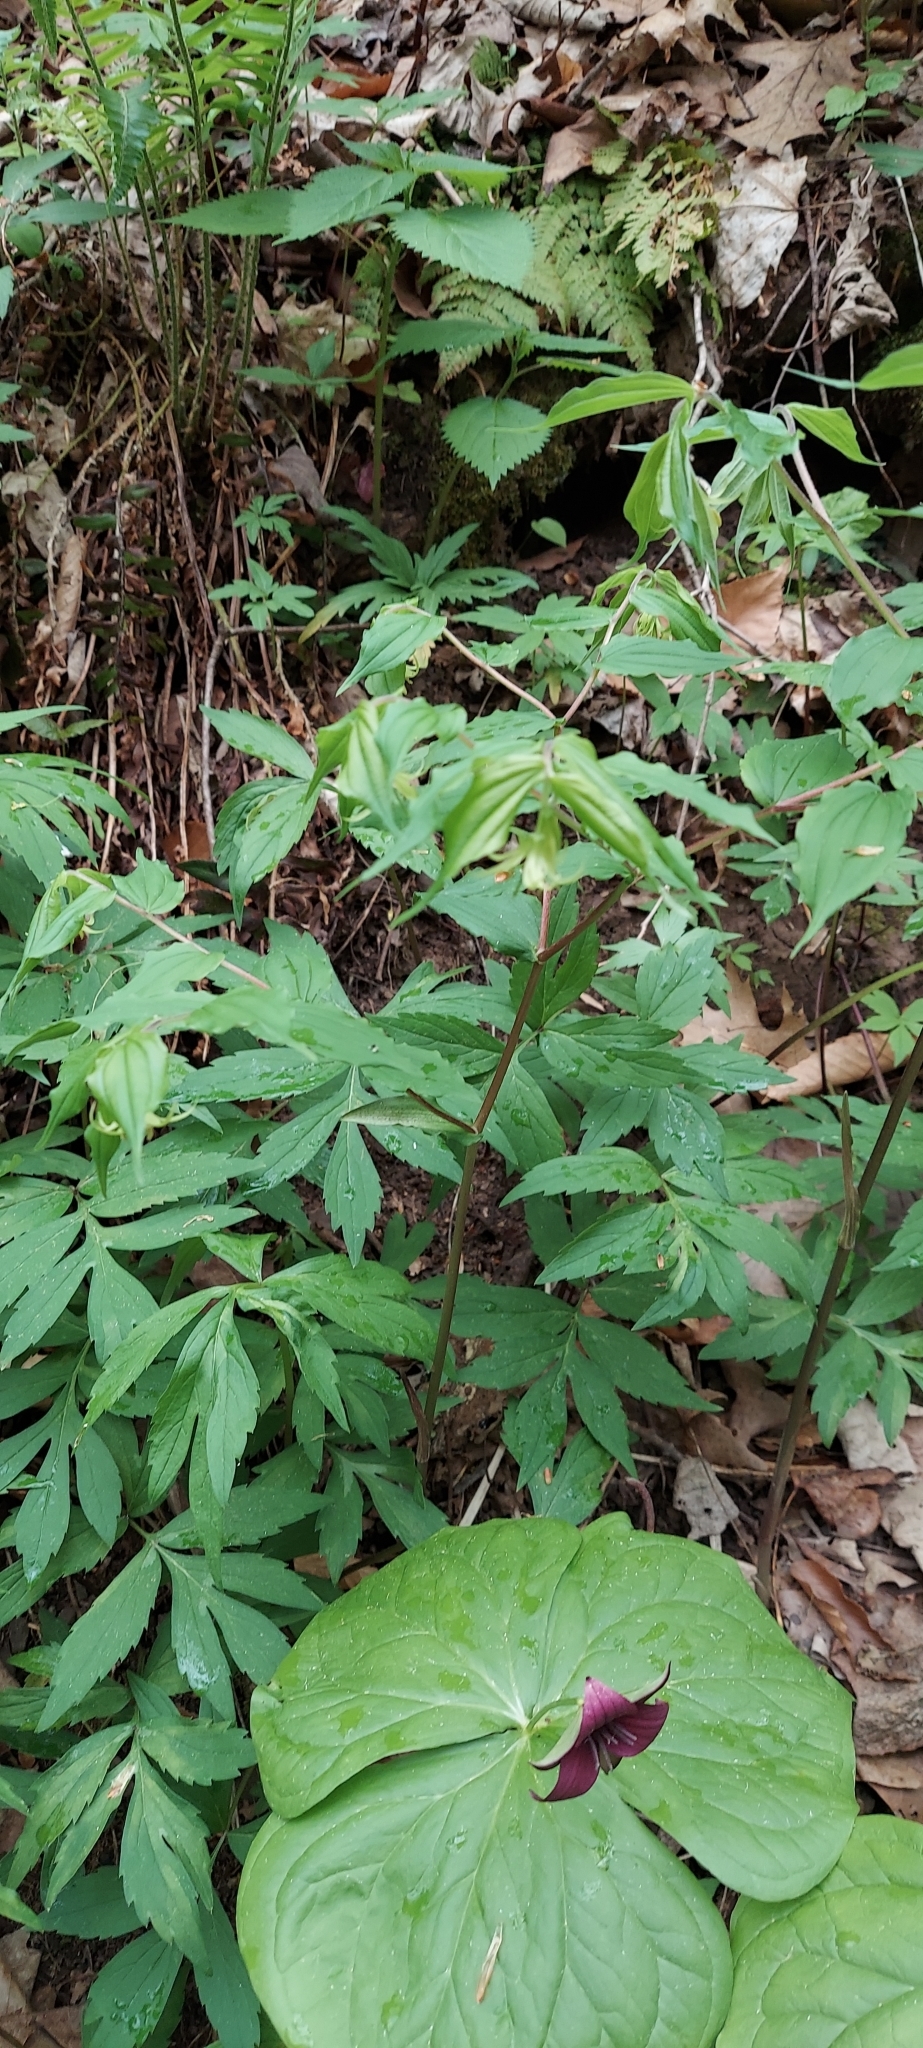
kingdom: Plantae
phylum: Tracheophyta
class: Liliopsida
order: Liliales
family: Melanthiaceae
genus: Trillium
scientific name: Trillium sulcatum
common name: Barksdale trillium
